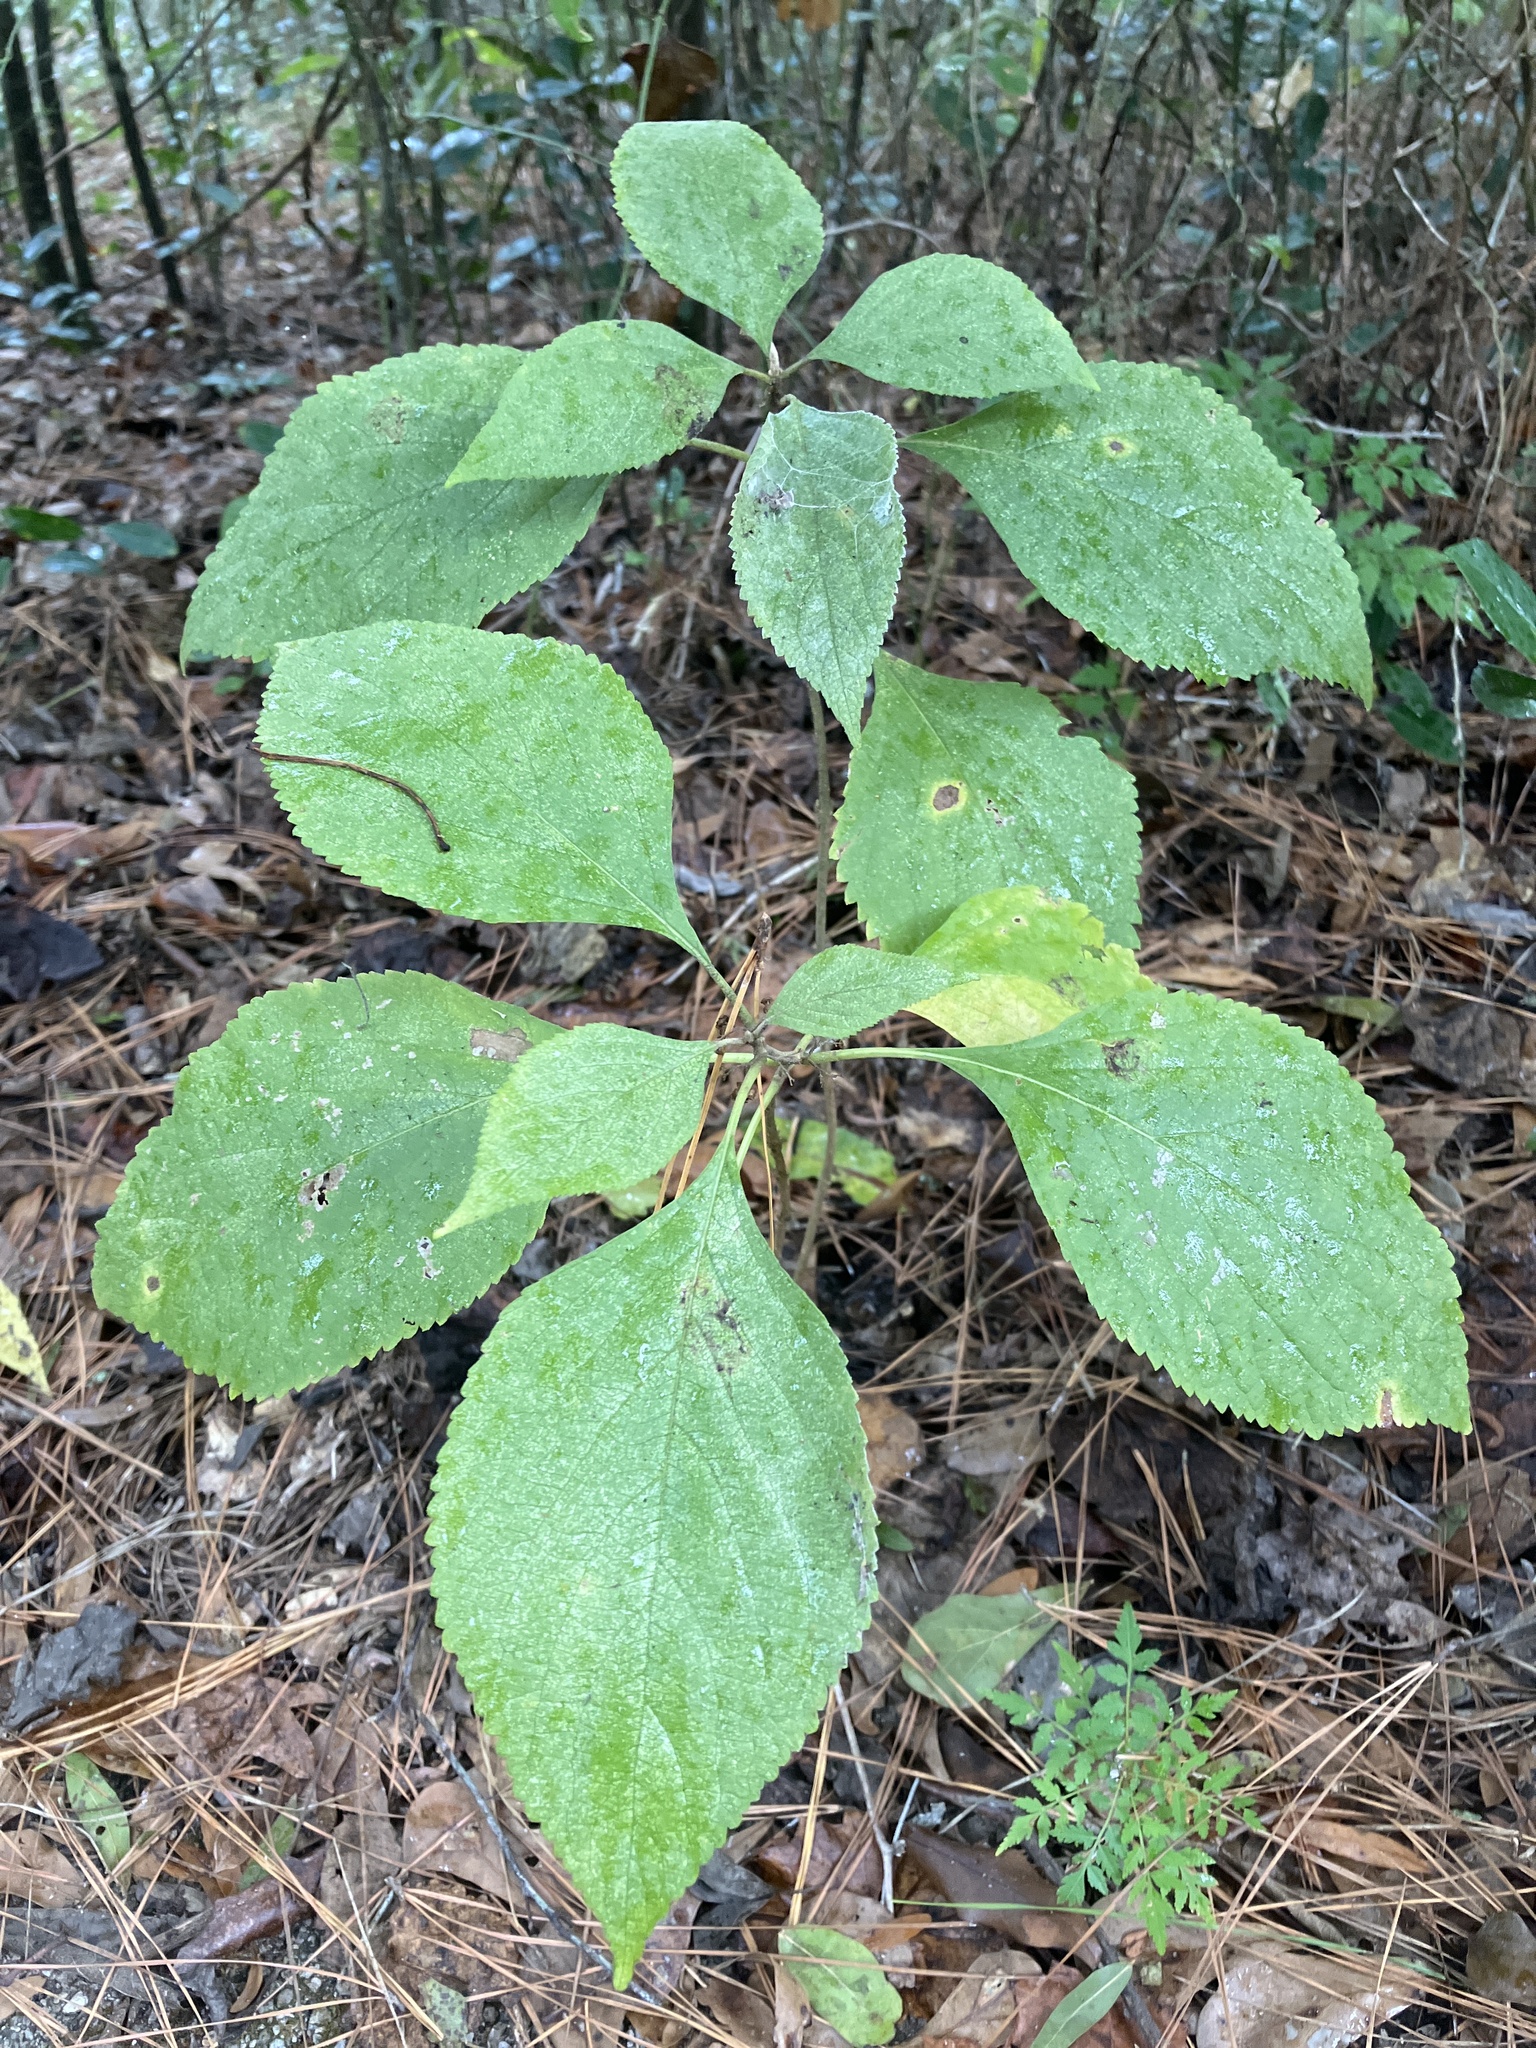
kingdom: Plantae
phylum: Tracheophyta
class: Magnoliopsida
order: Lamiales
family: Lamiaceae
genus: Callicarpa
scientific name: Callicarpa americana
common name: American beautyberry
